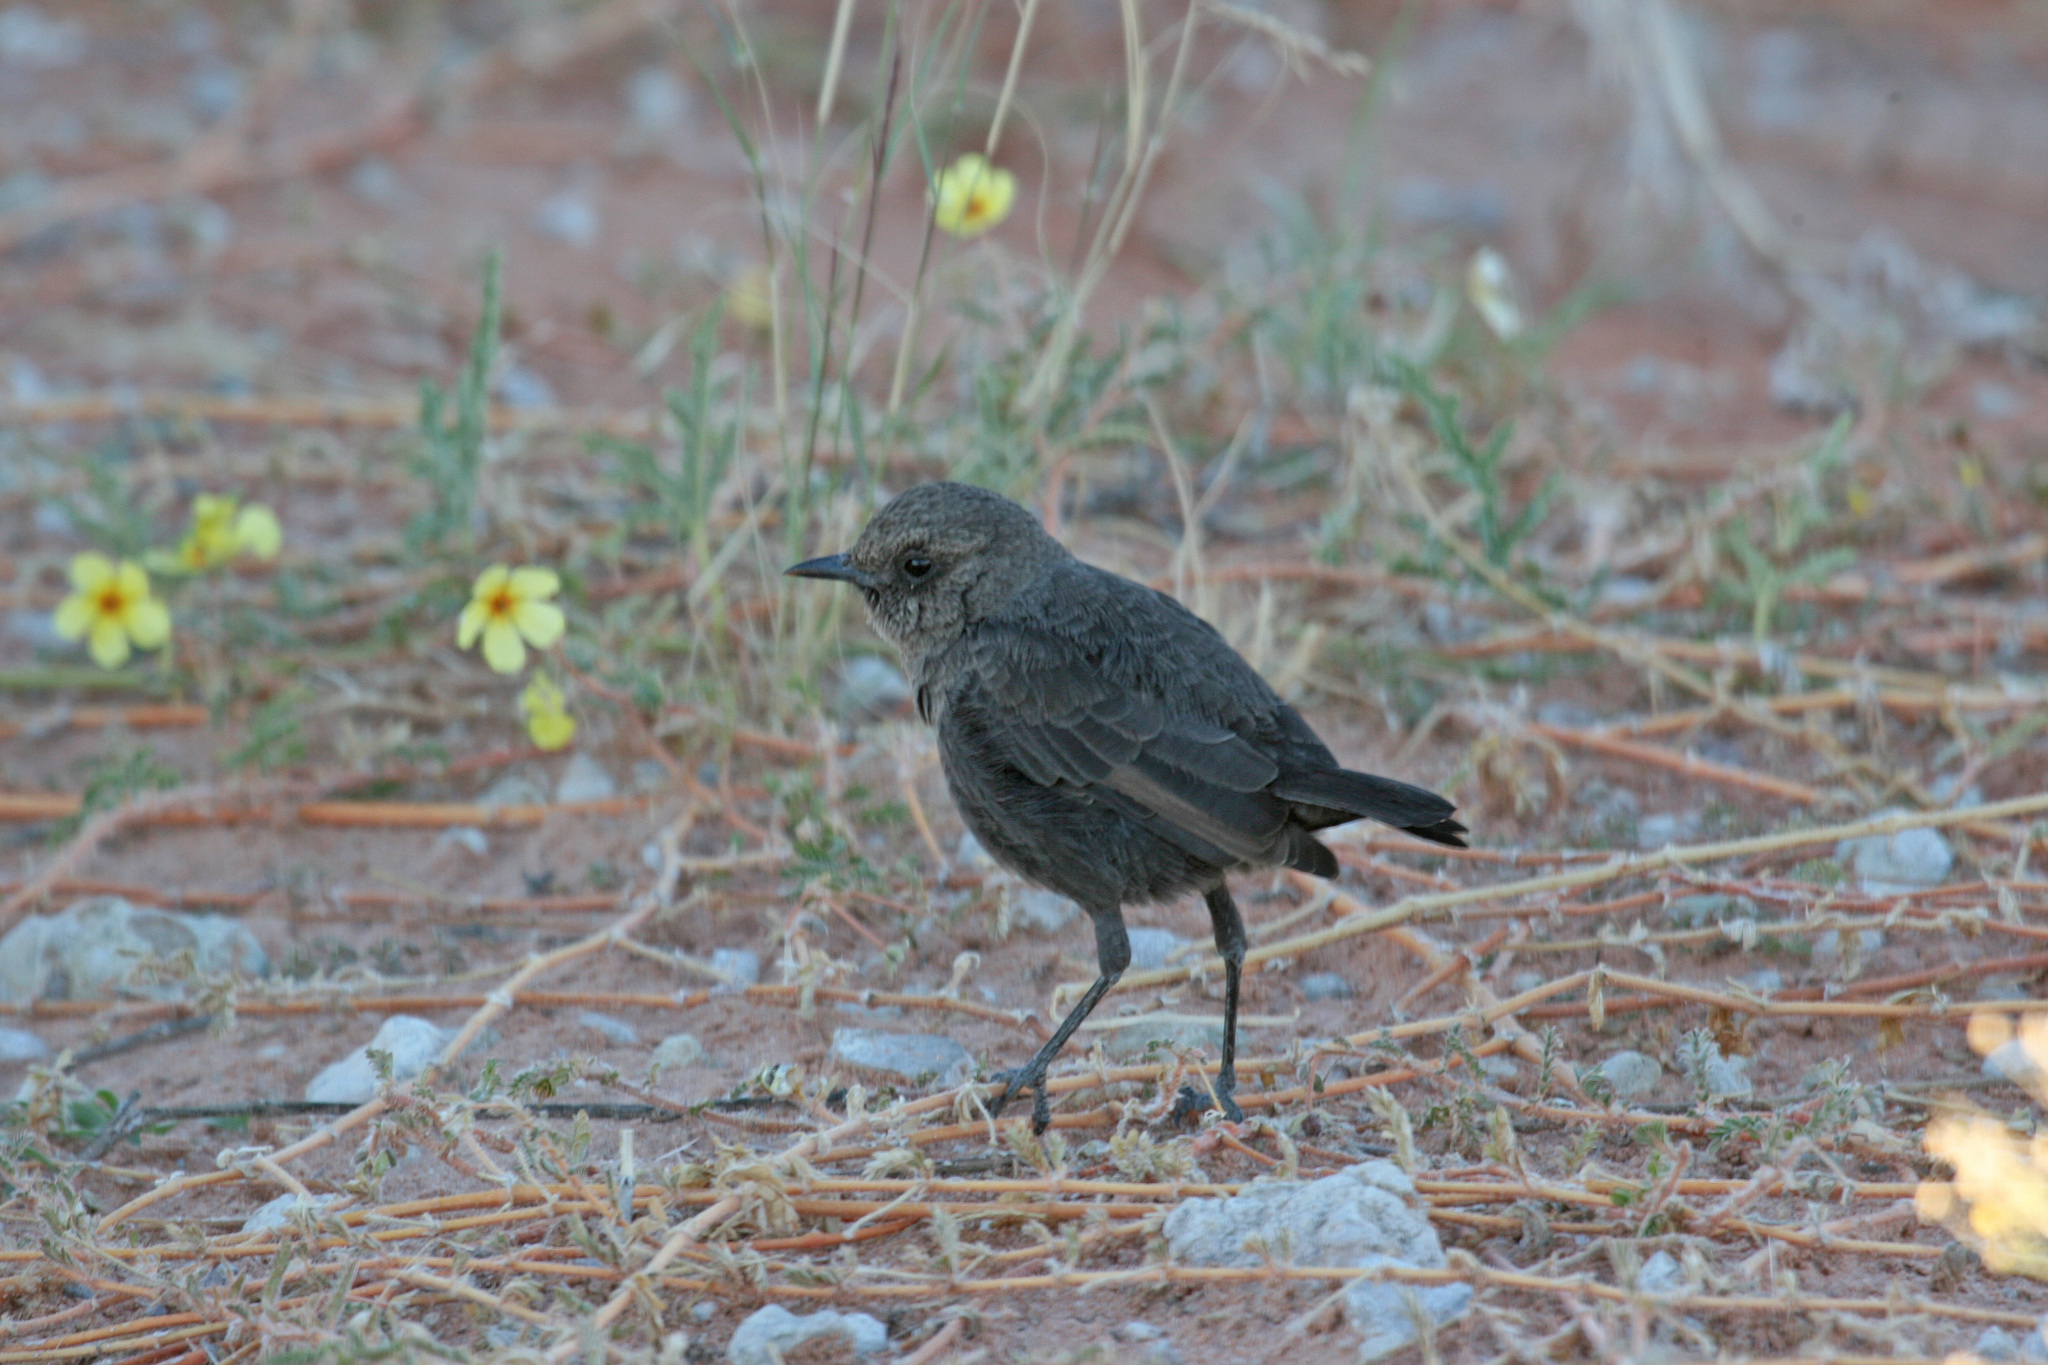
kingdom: Animalia
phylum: Chordata
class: Aves
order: Passeriformes
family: Muscicapidae
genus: Myrmecocichla
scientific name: Myrmecocichla formicivora
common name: Ant-eating chat
